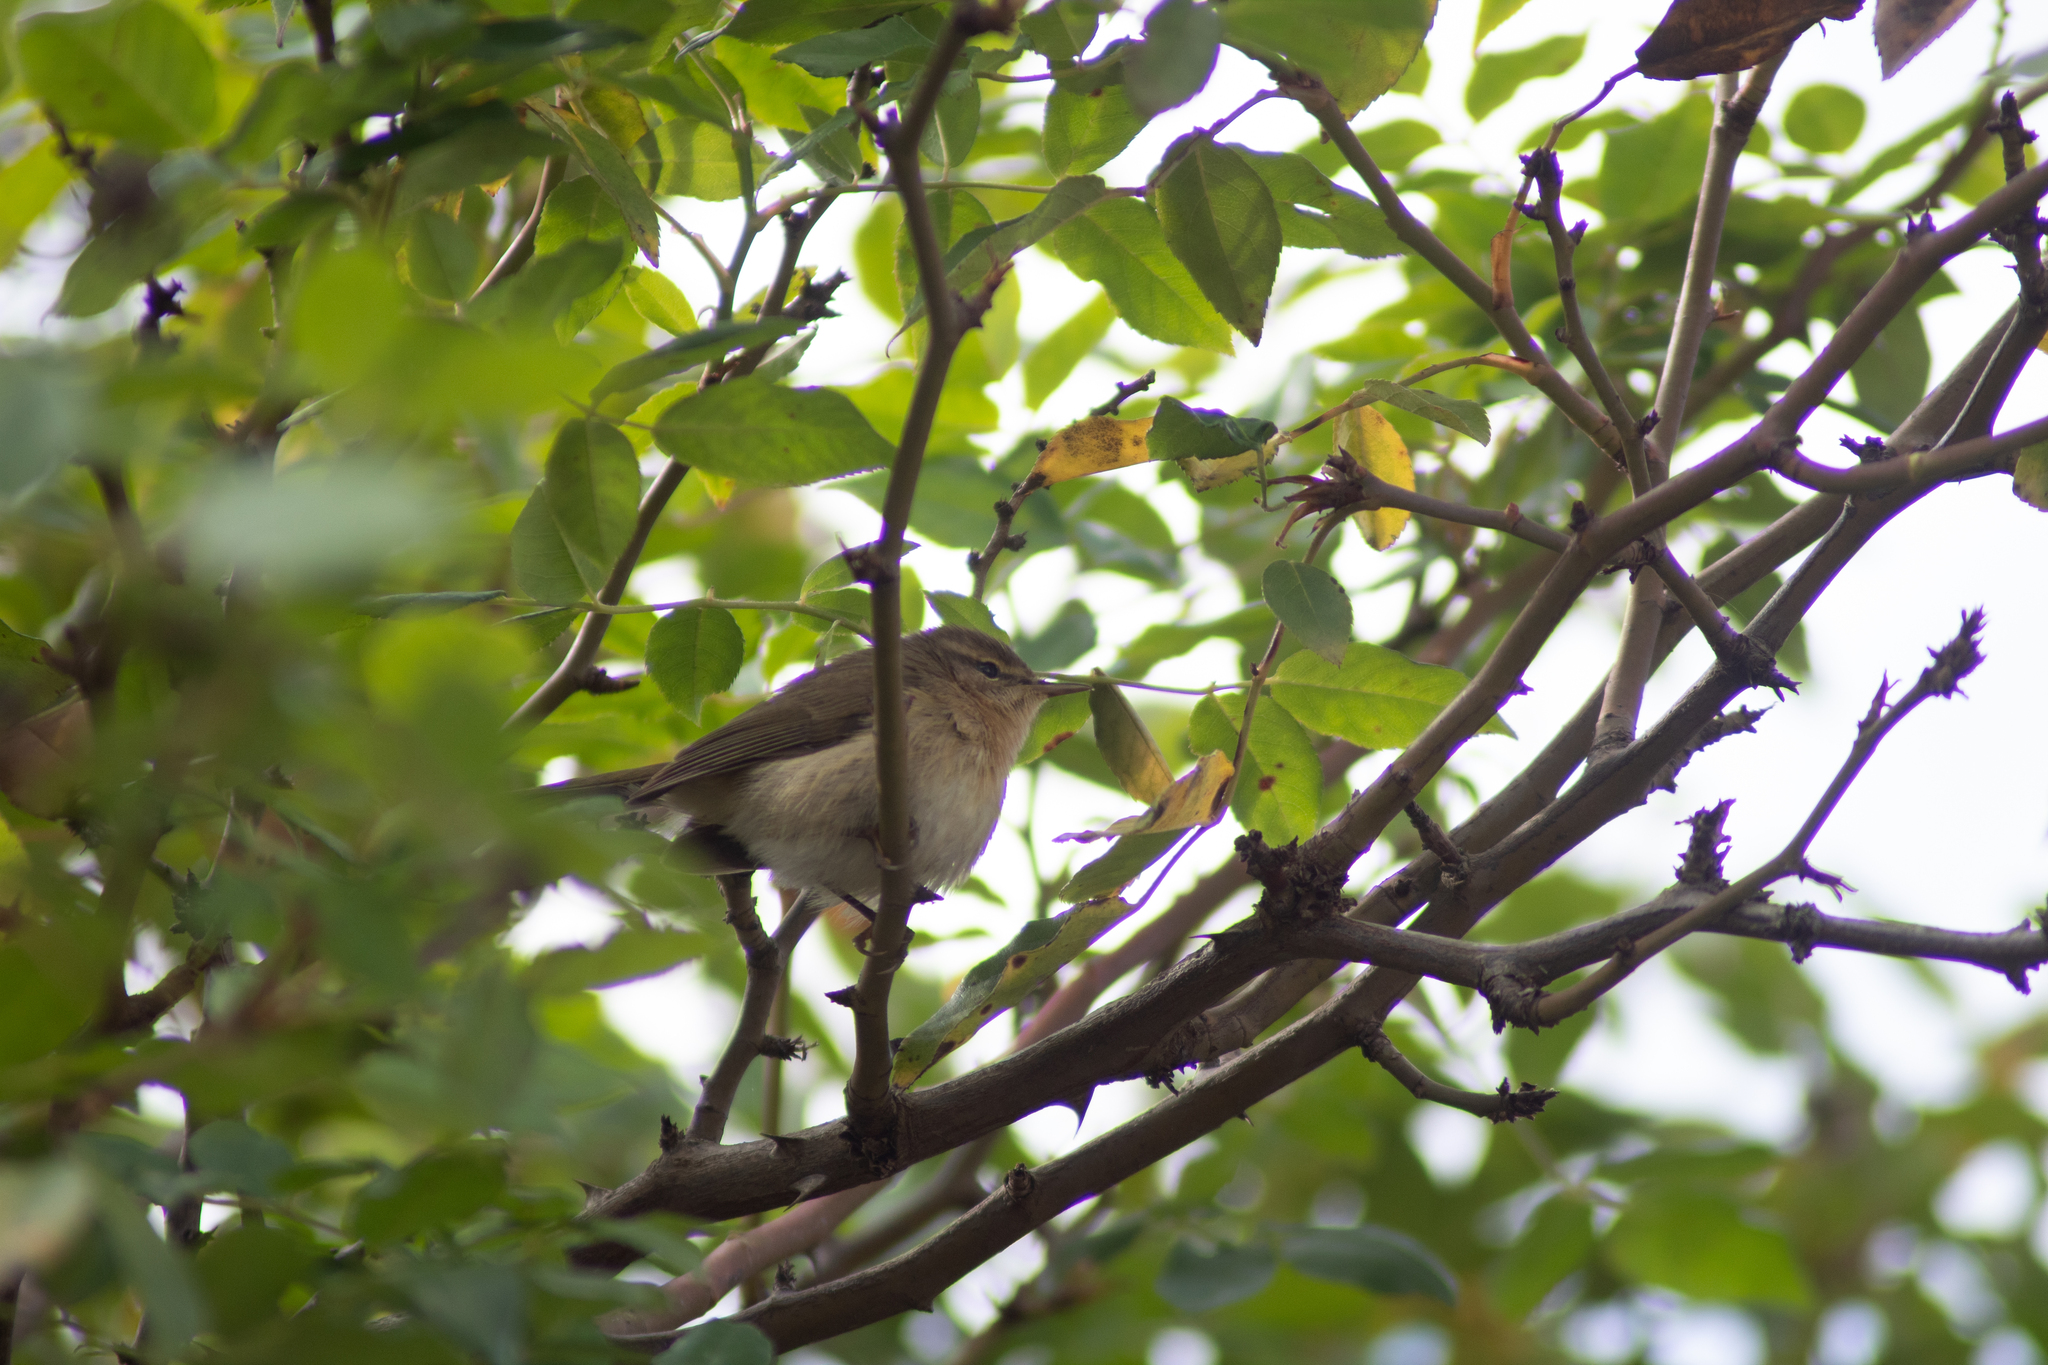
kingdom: Animalia
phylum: Chordata
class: Aves
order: Passeriformes
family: Phylloscopidae
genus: Phylloscopus
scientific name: Phylloscopus canariensis
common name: Canary islands chiffchaff
